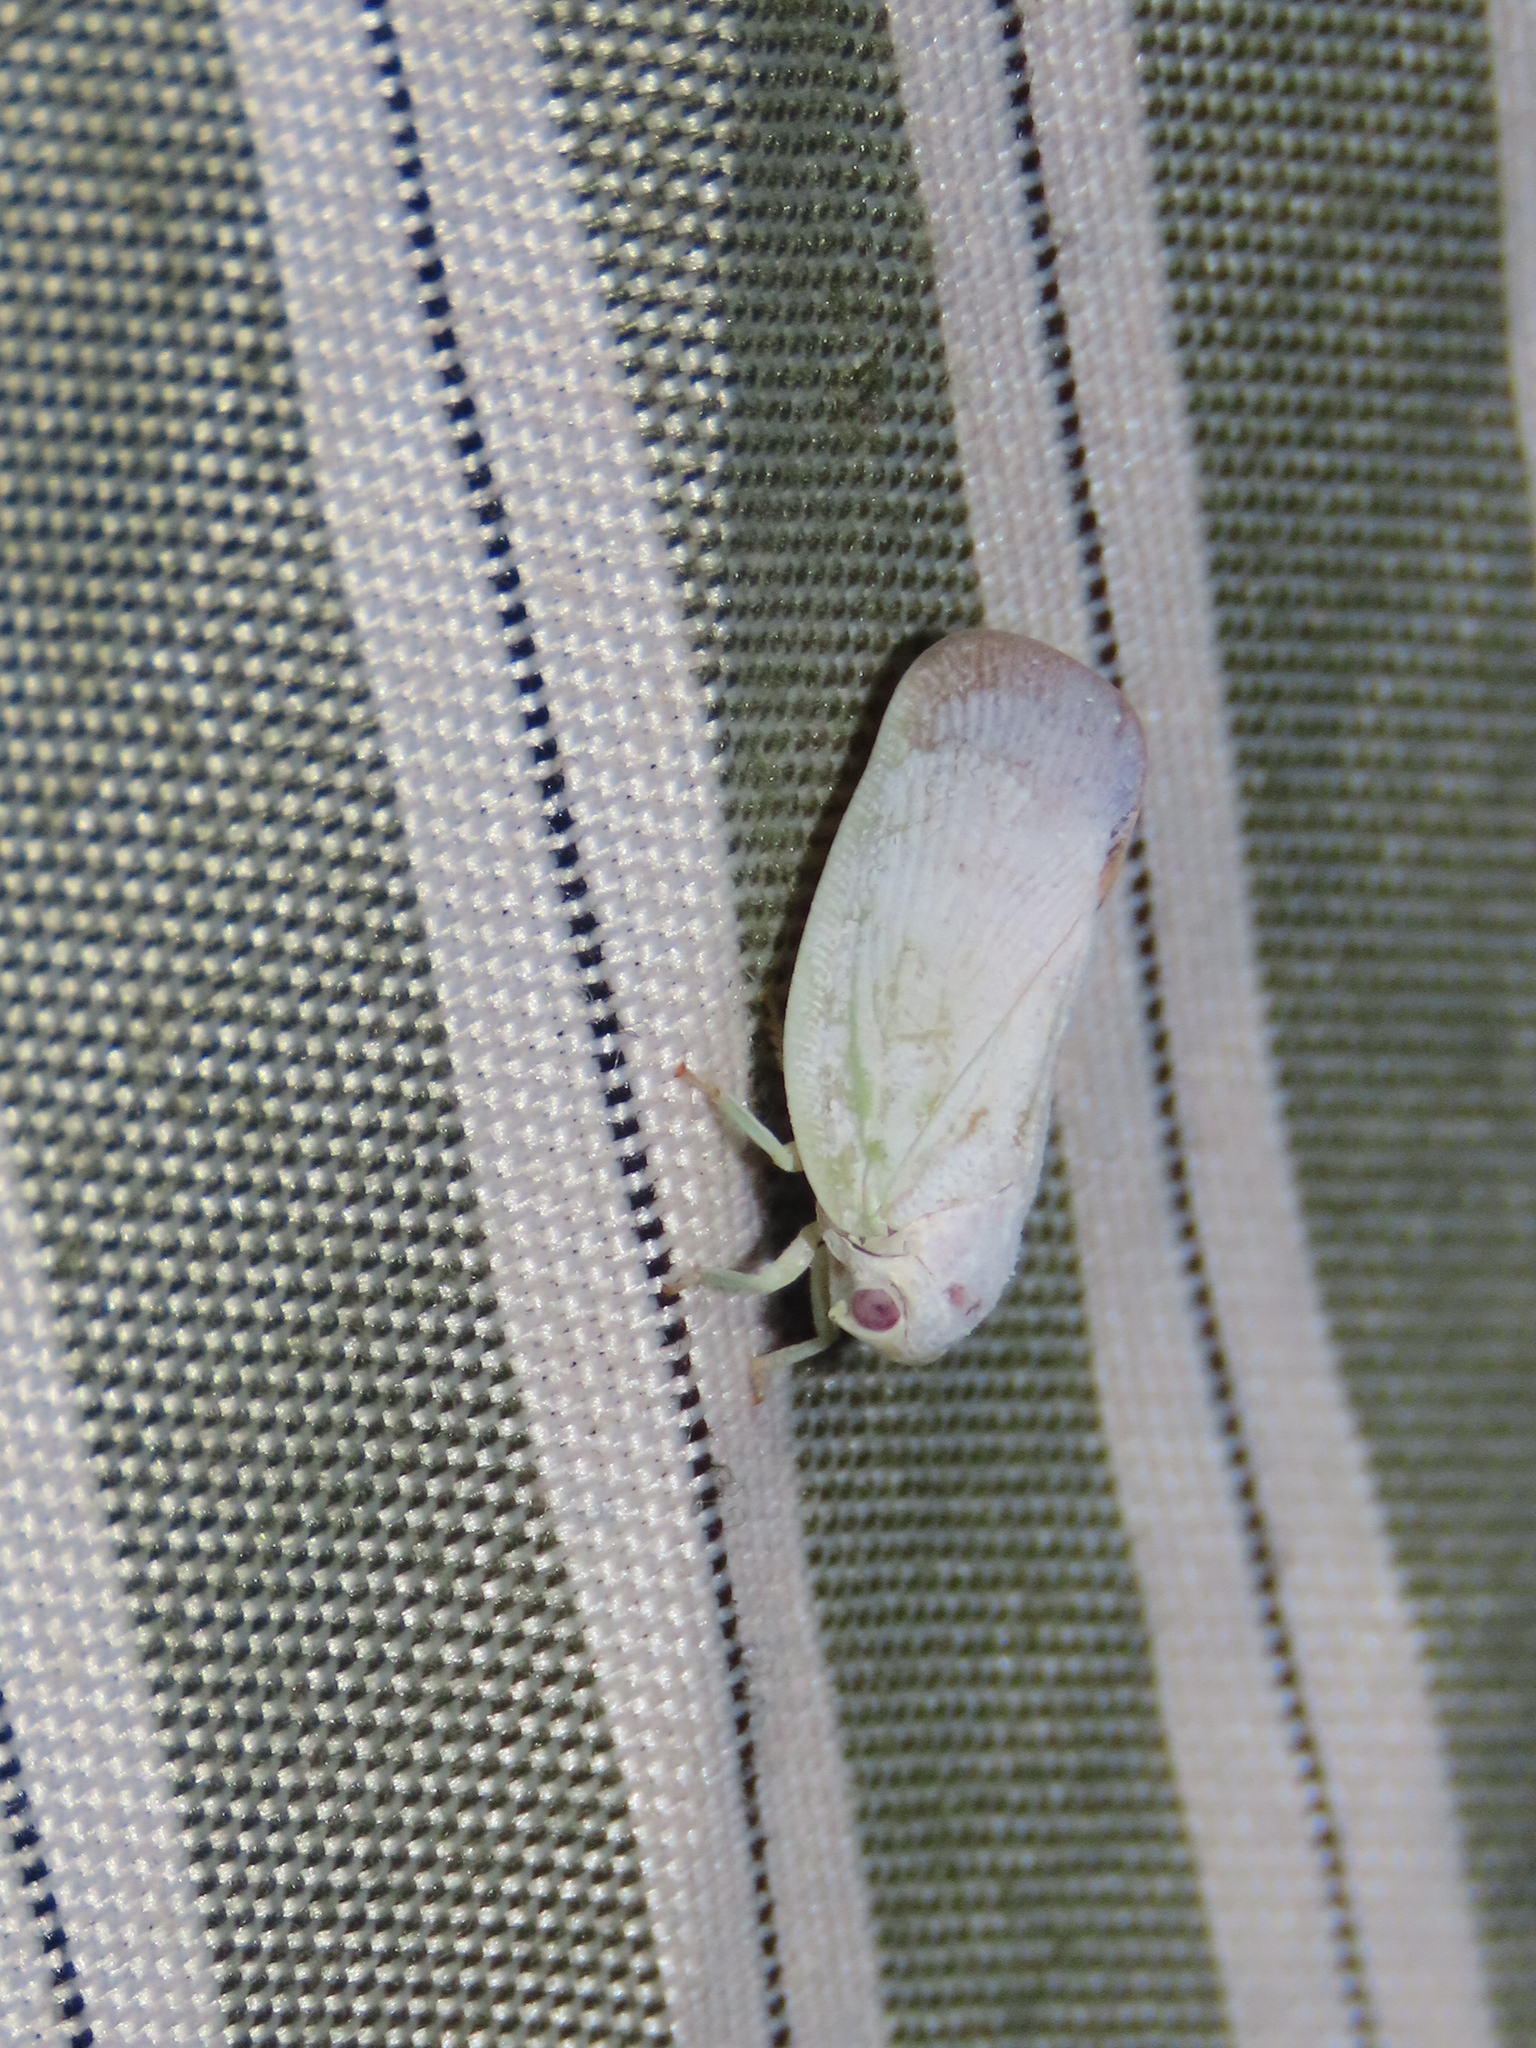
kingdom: Animalia
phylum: Arthropoda
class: Insecta
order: Hemiptera
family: Flatidae
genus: Flatormenis
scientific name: Flatormenis saucia
